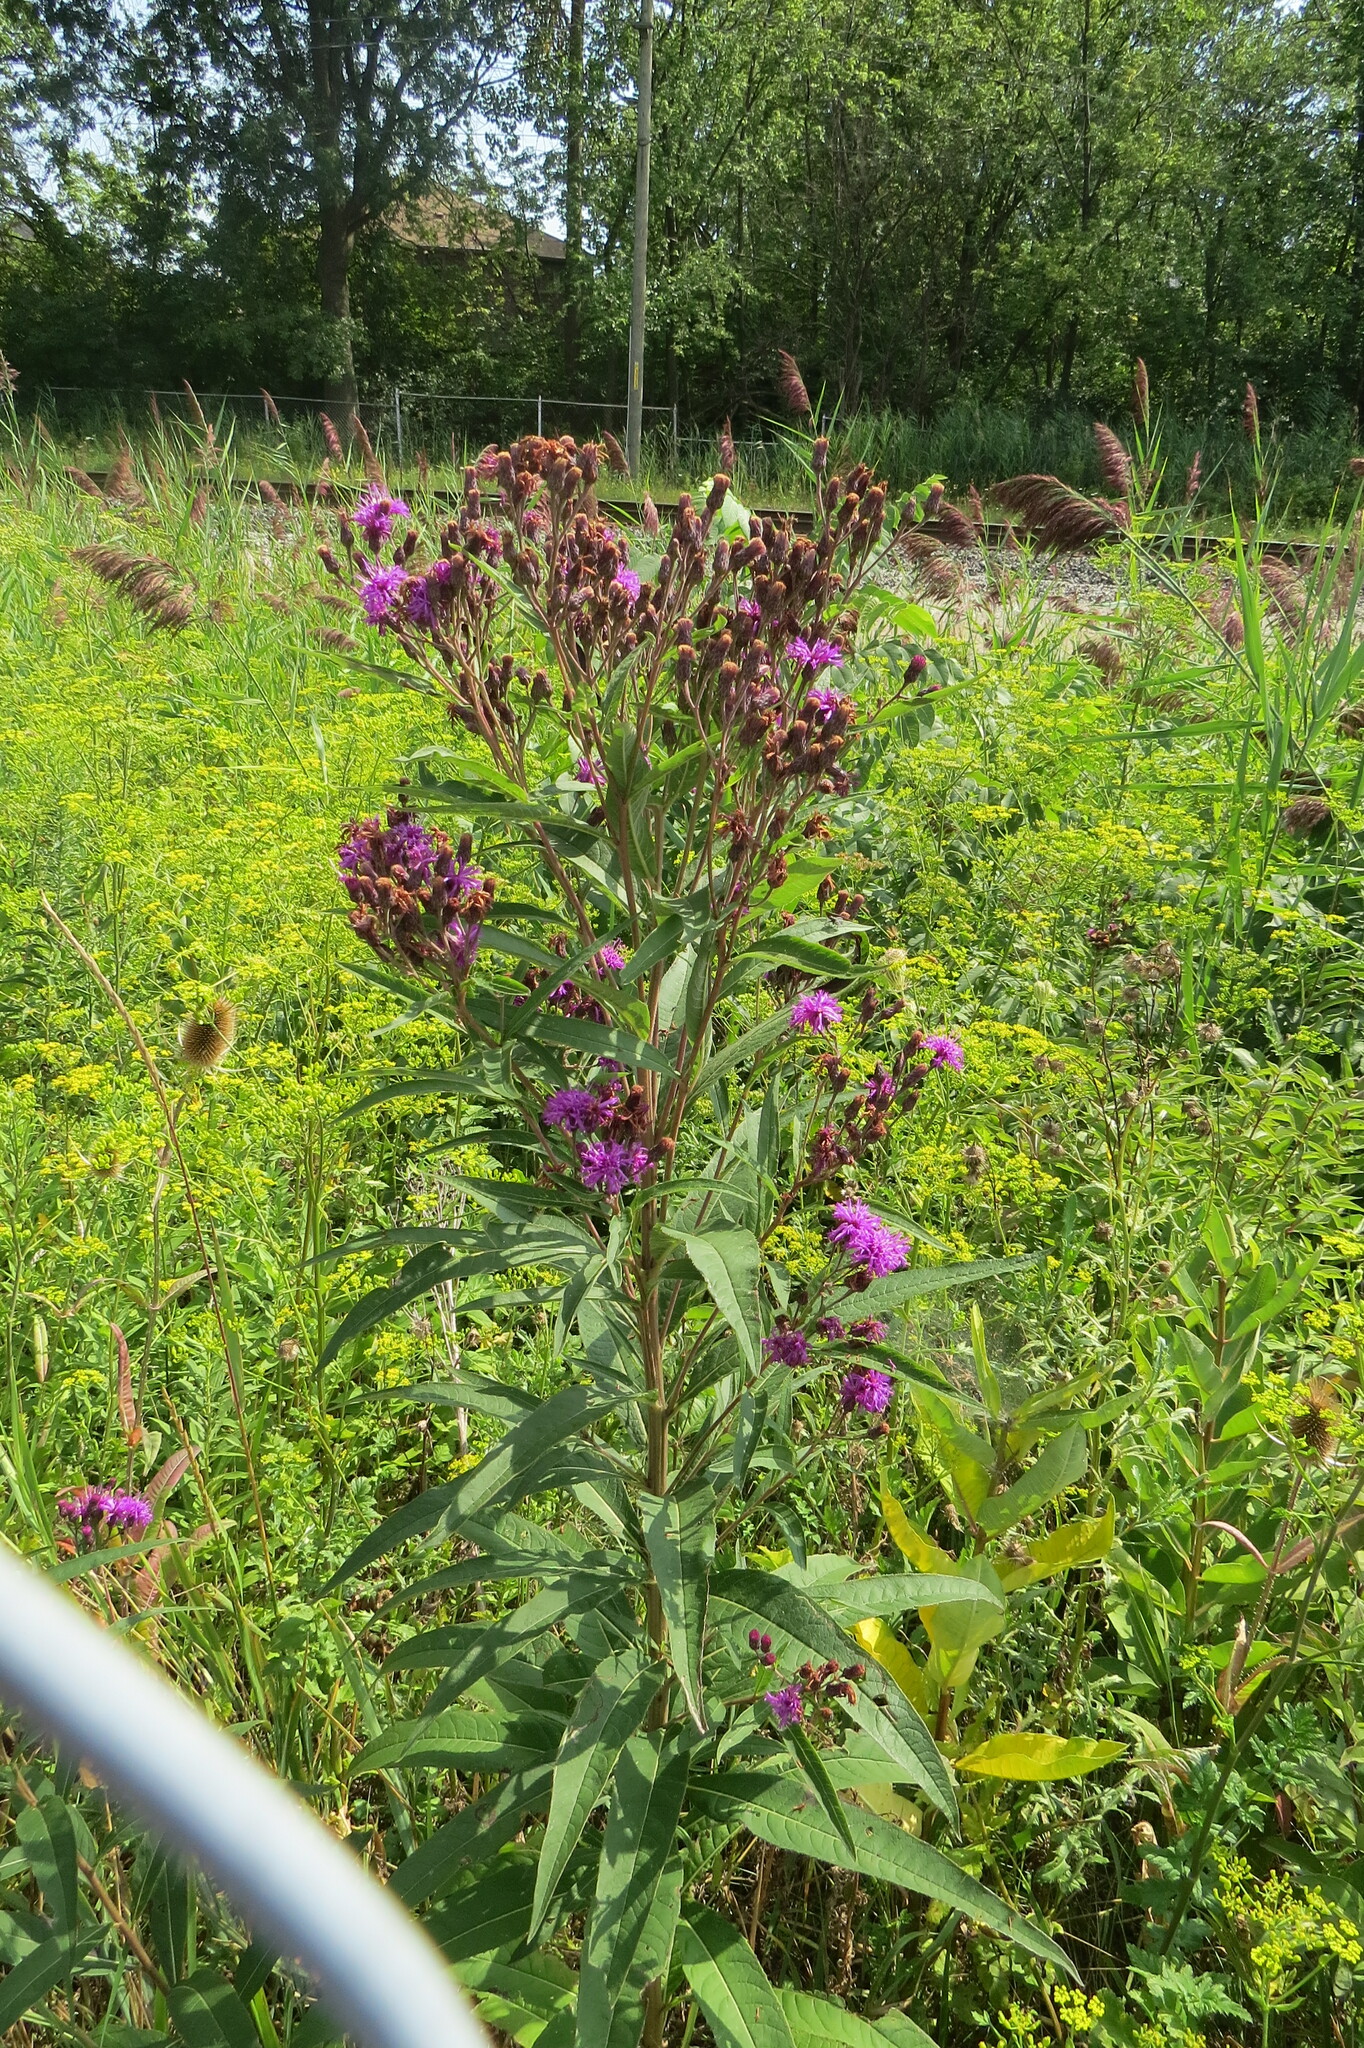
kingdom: Plantae
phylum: Tracheophyta
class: Magnoliopsida
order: Asterales
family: Asteraceae
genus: Vernonia
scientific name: Vernonia gigantea
